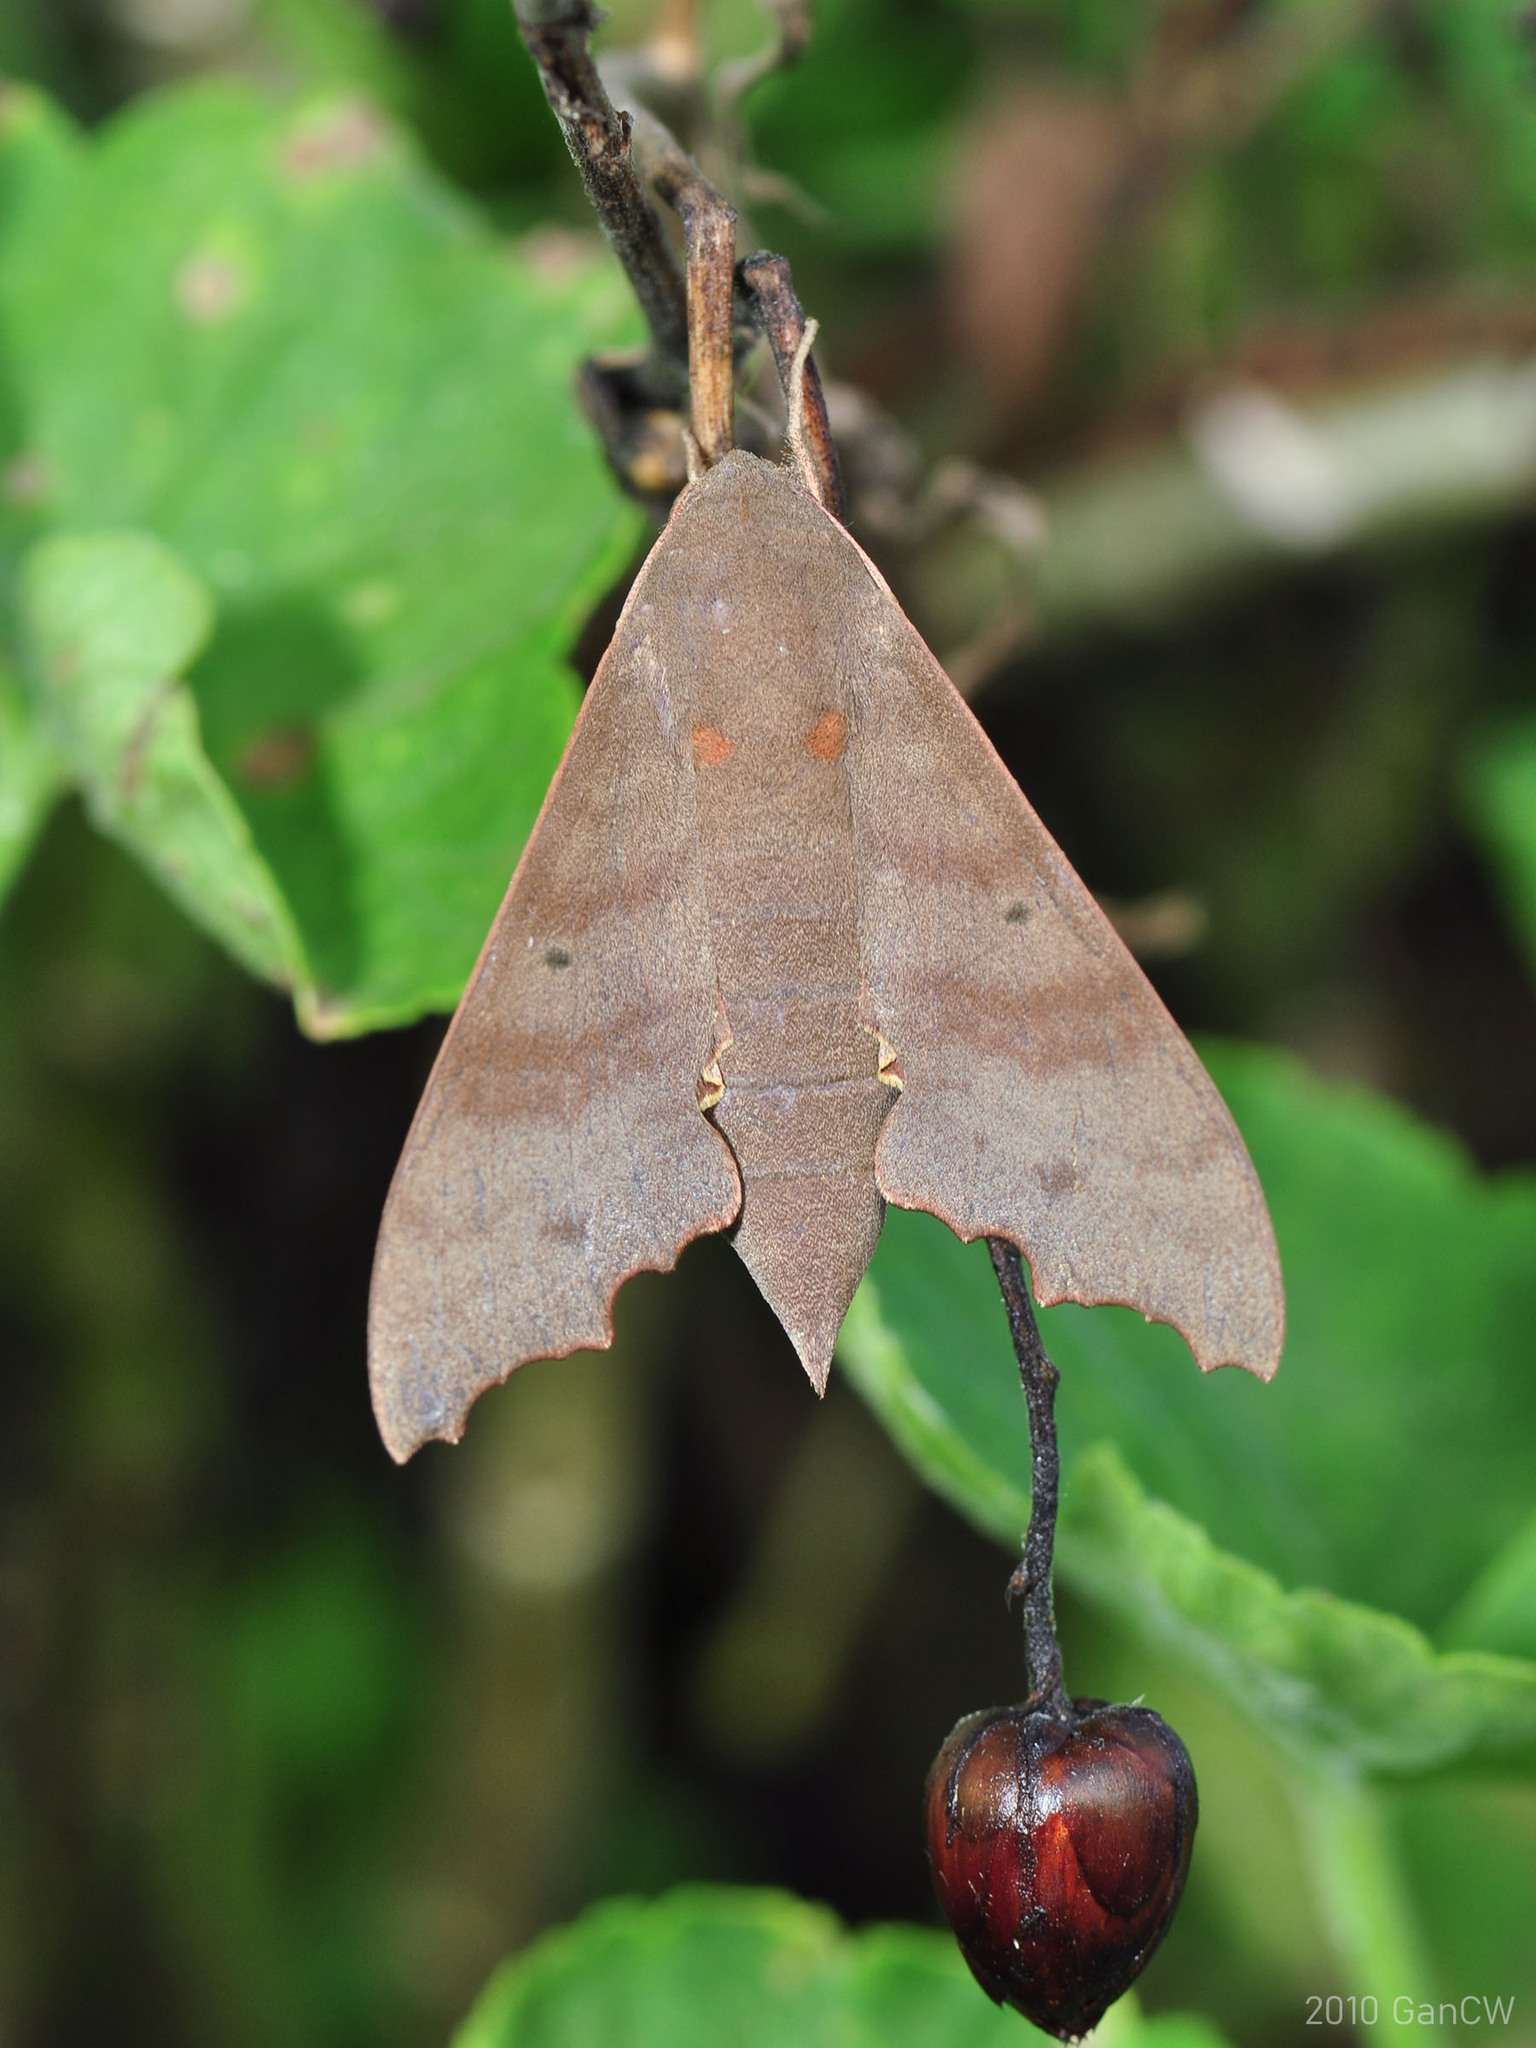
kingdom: Animalia
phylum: Arthropoda
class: Insecta
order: Lepidoptera
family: Sphingidae
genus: Cypa
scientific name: Cypa decolor
